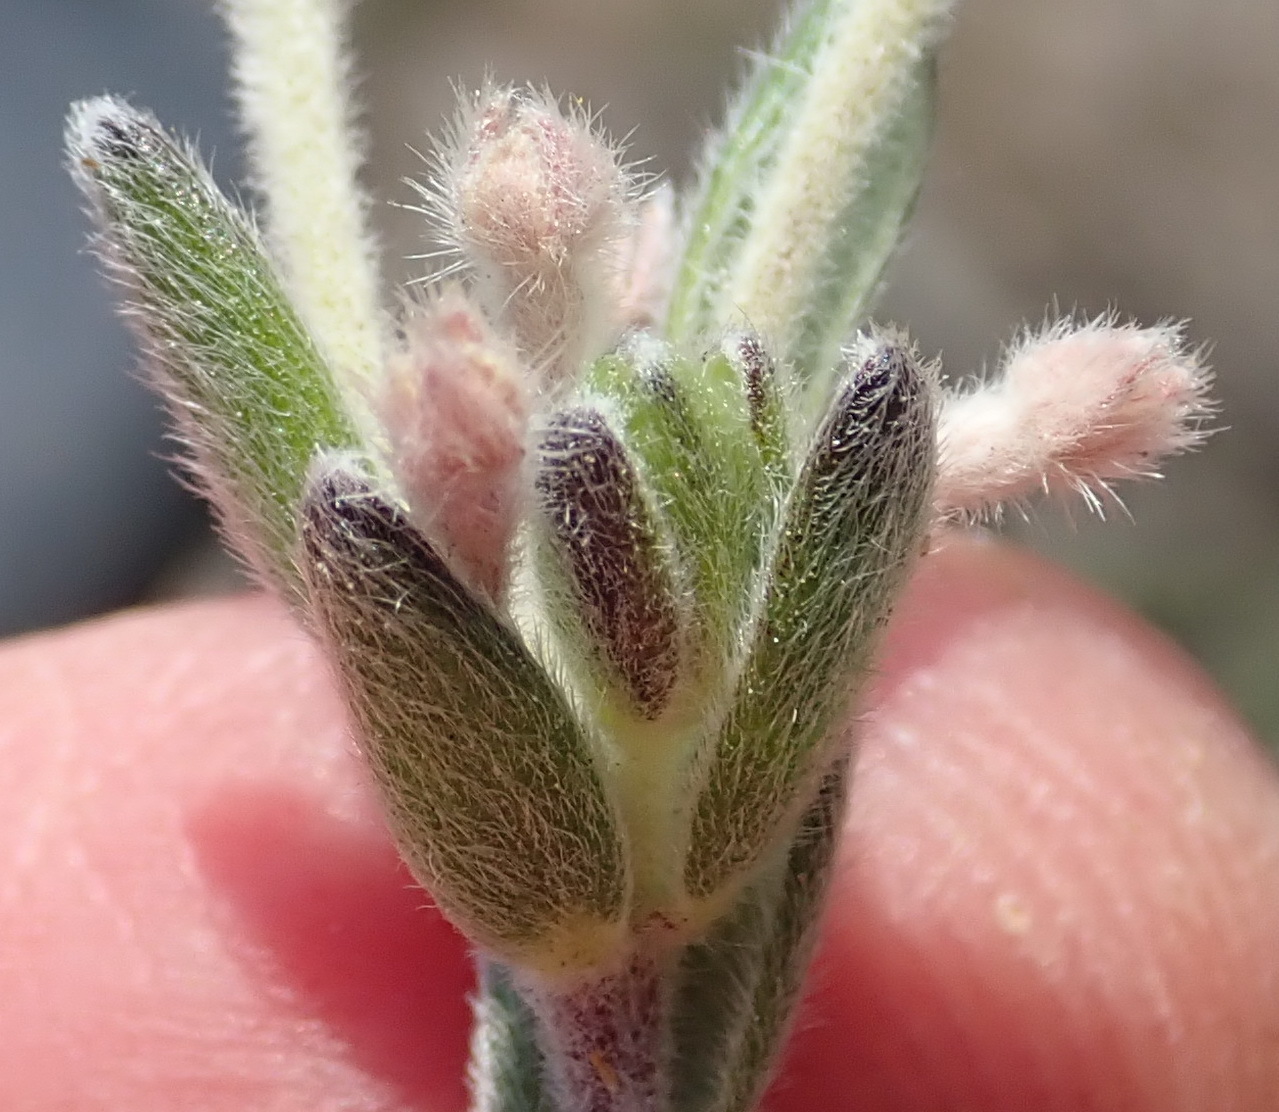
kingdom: Plantae
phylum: Tracheophyta
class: Magnoliopsida
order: Malvales
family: Thymelaeaceae
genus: Gnidia
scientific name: Gnidia nodiflora
